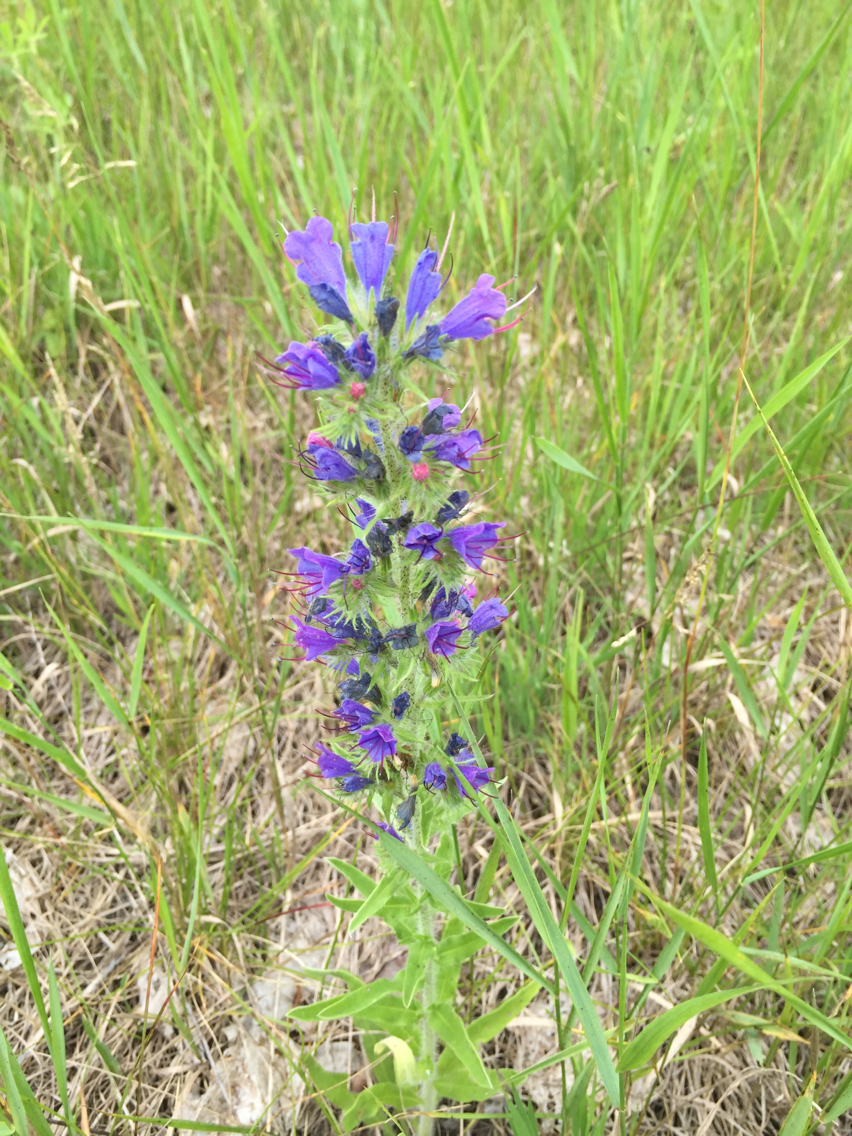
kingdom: Plantae
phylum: Tracheophyta
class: Magnoliopsida
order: Boraginales
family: Boraginaceae
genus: Echium
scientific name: Echium vulgare
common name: Common viper's bugloss
